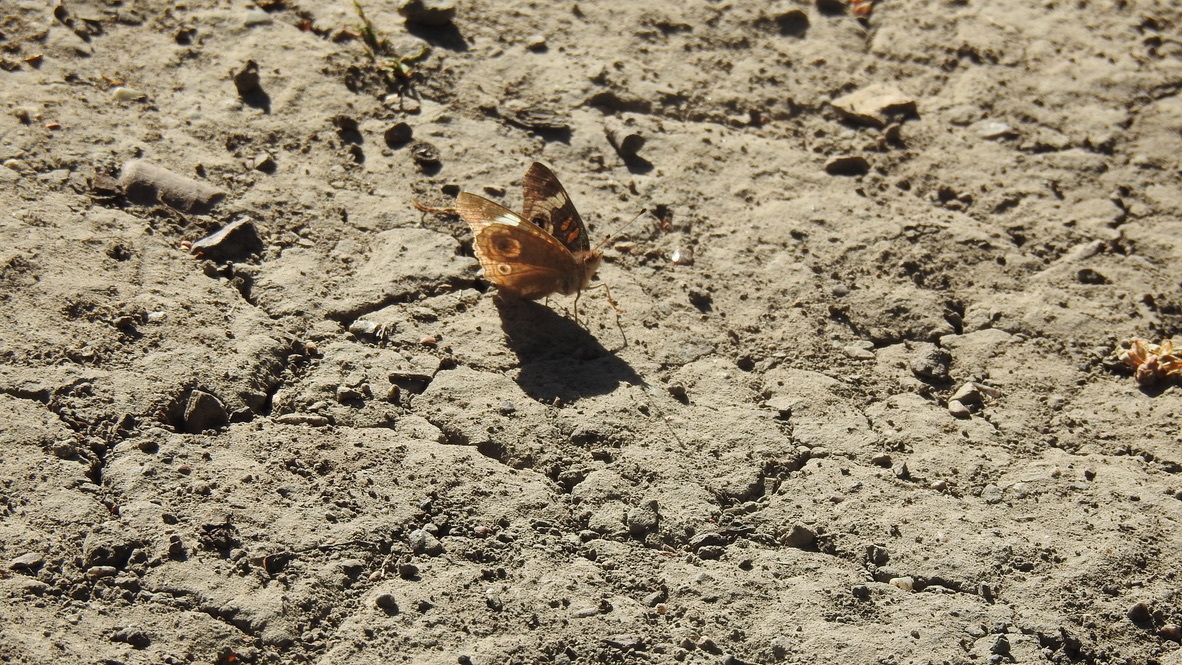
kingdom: Animalia
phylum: Arthropoda
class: Insecta
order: Lepidoptera
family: Nymphalidae
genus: Junonia
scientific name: Junonia grisea
